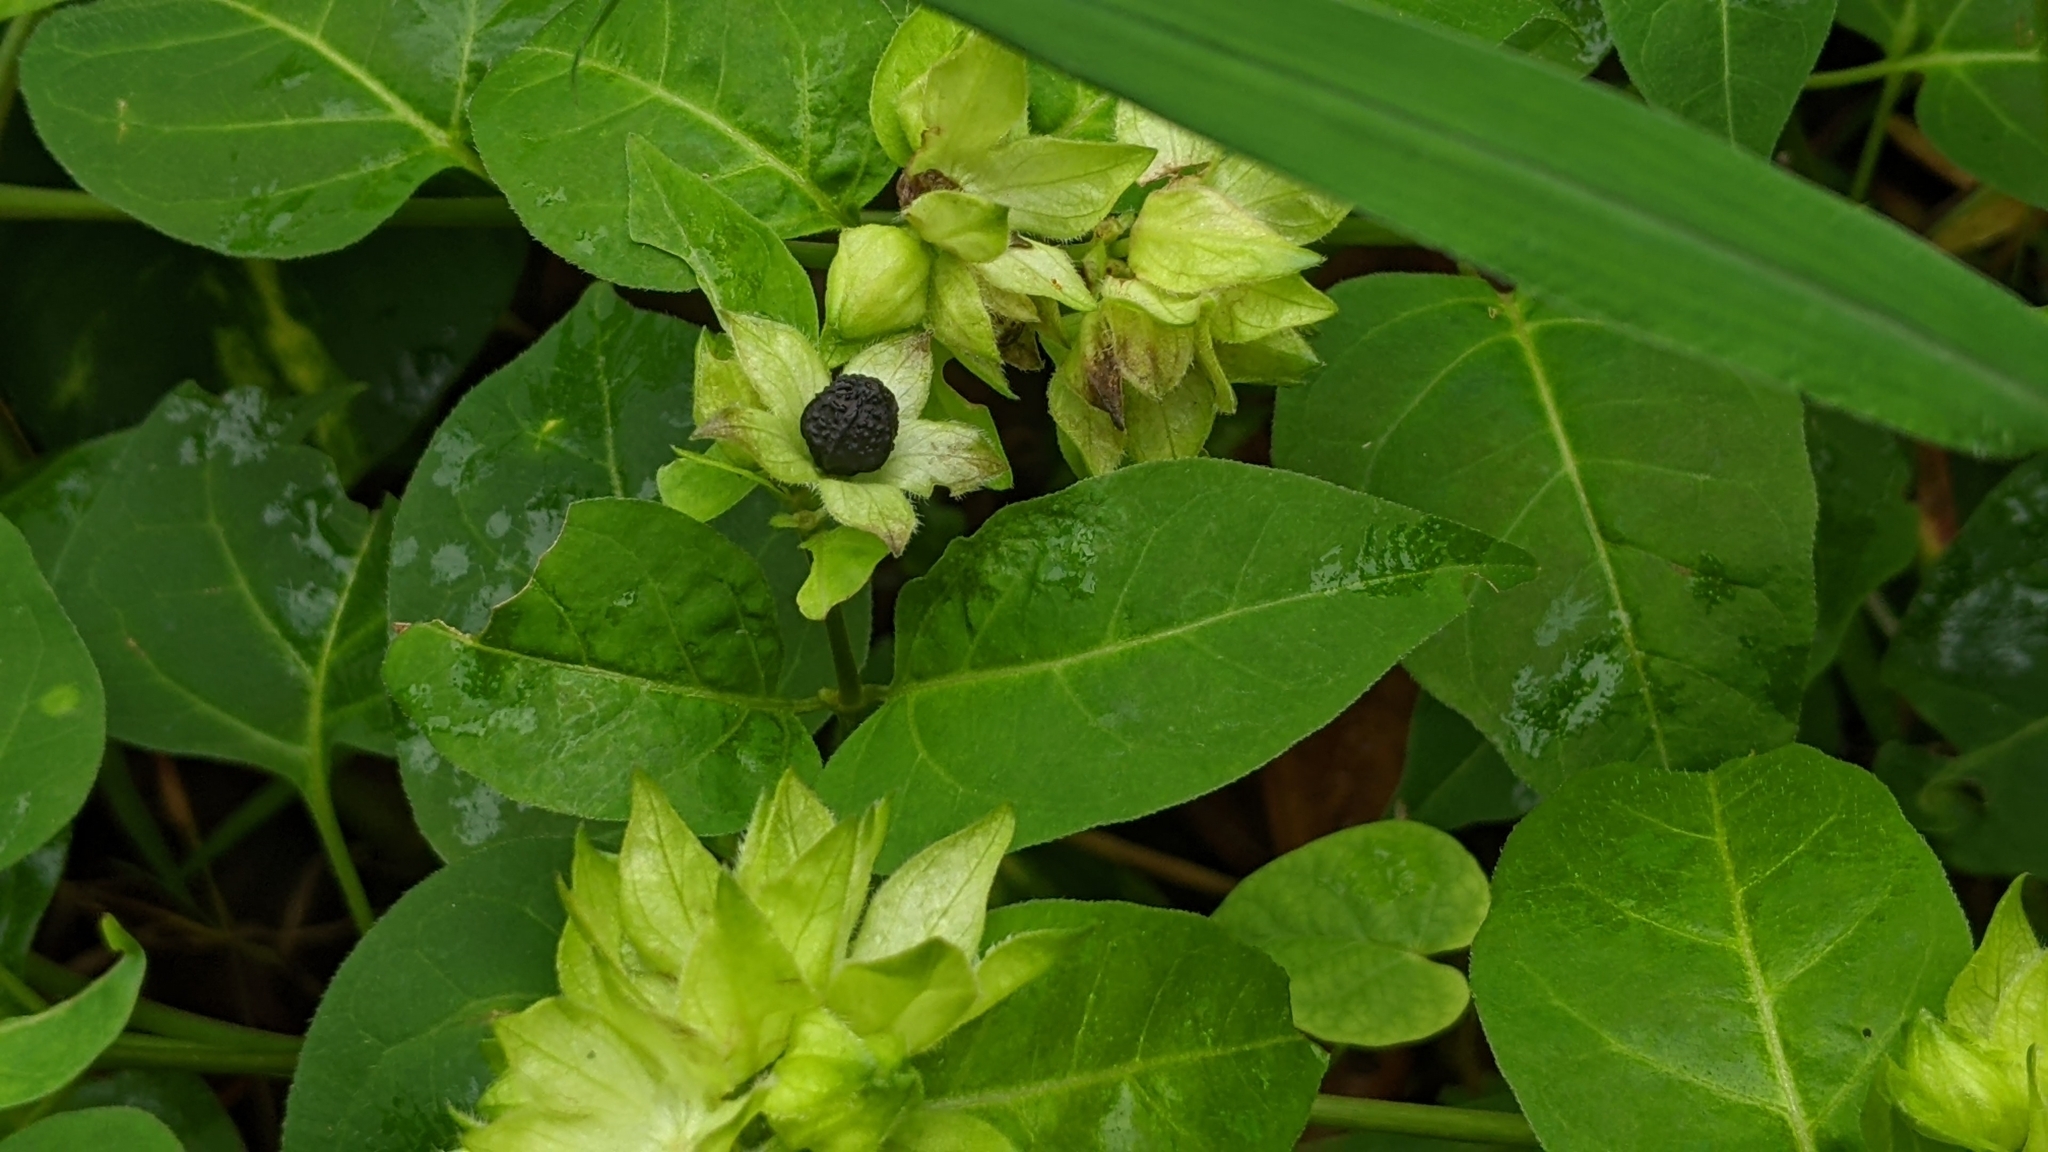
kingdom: Plantae
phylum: Tracheophyta
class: Magnoliopsida
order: Caryophyllales
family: Nyctaginaceae
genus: Mirabilis
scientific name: Mirabilis jalapa
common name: Marvel-of-peru
